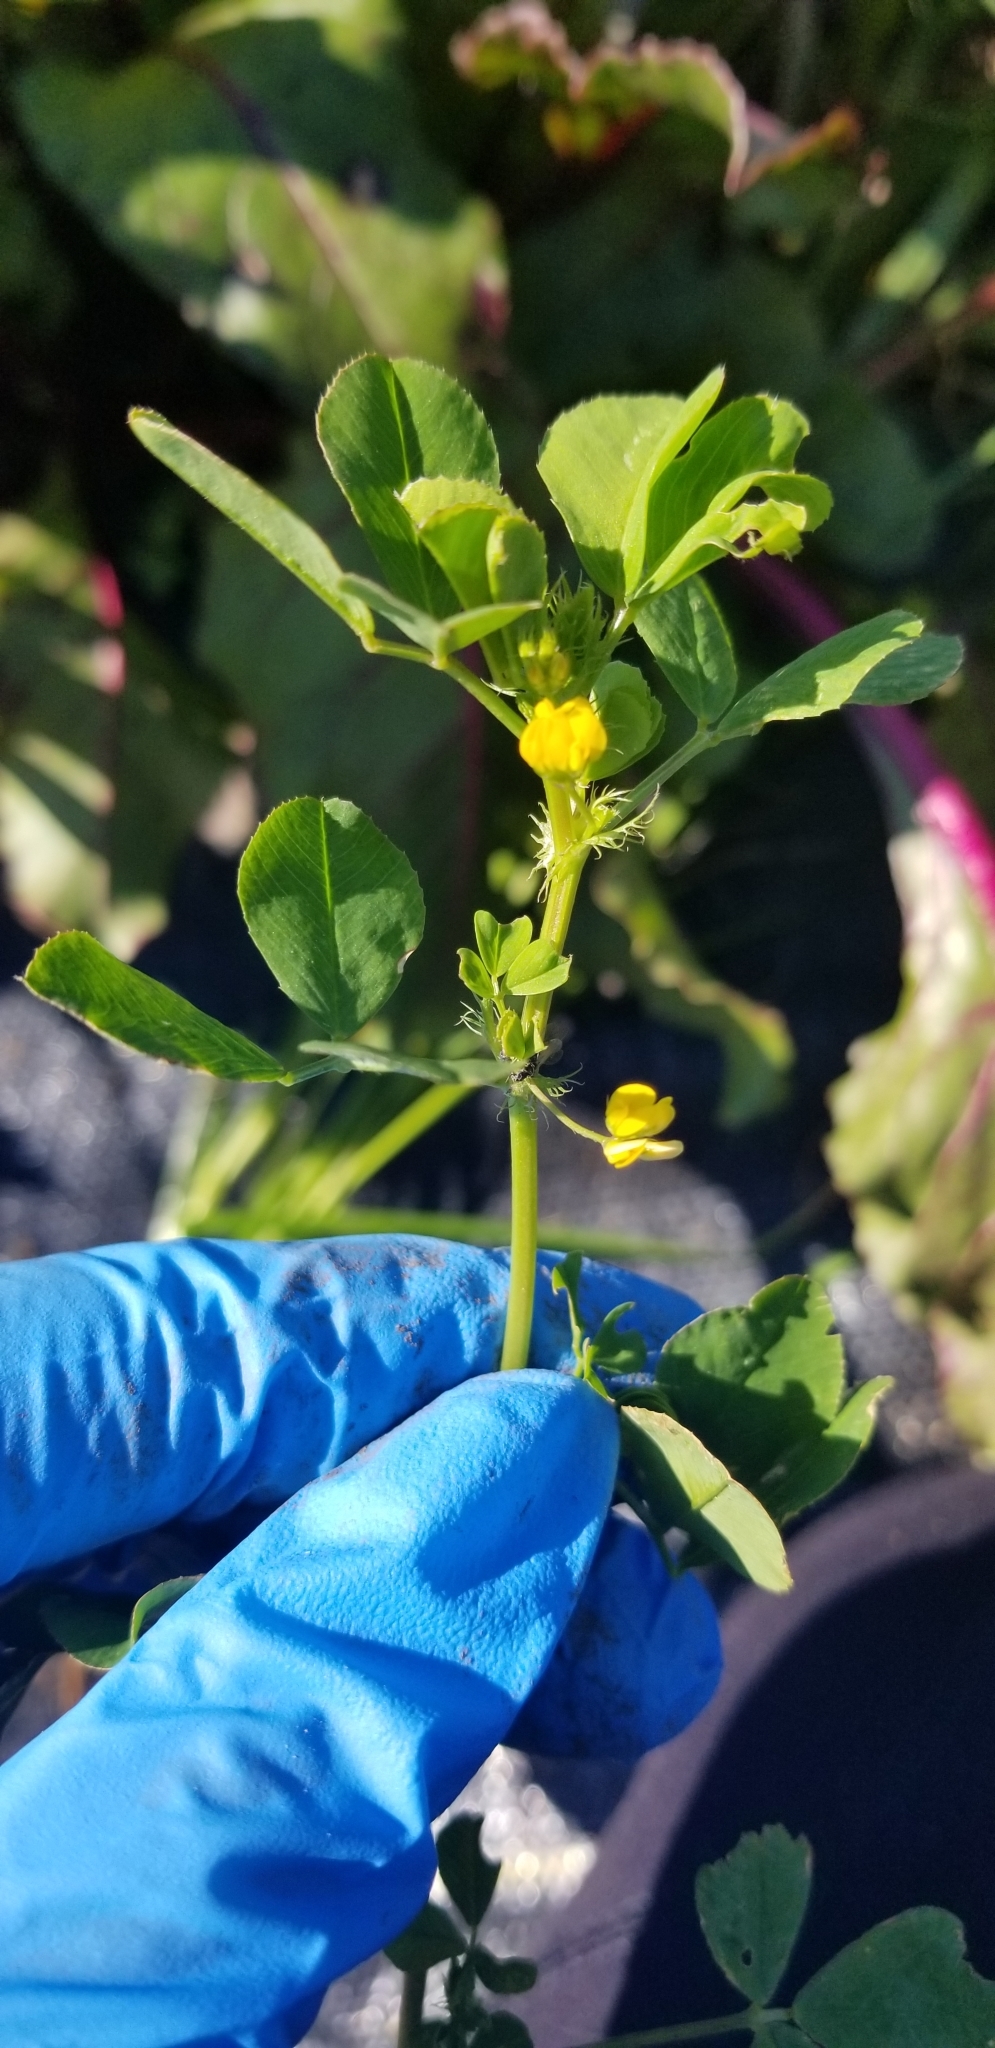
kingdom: Plantae
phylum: Tracheophyta
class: Magnoliopsida
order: Fabales
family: Fabaceae
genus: Medicago
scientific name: Medicago polymorpha
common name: Burclover
